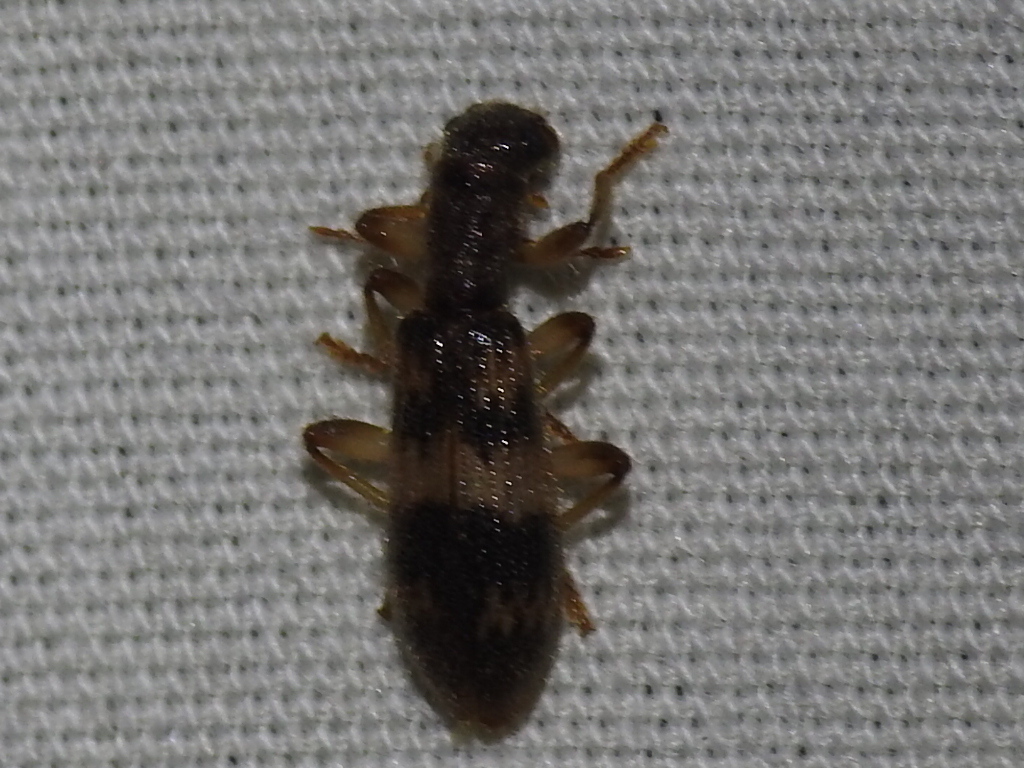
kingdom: Animalia
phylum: Arthropoda
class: Insecta
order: Coleoptera
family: Cleridae
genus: Cymatodera
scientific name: Cymatodera undulata
